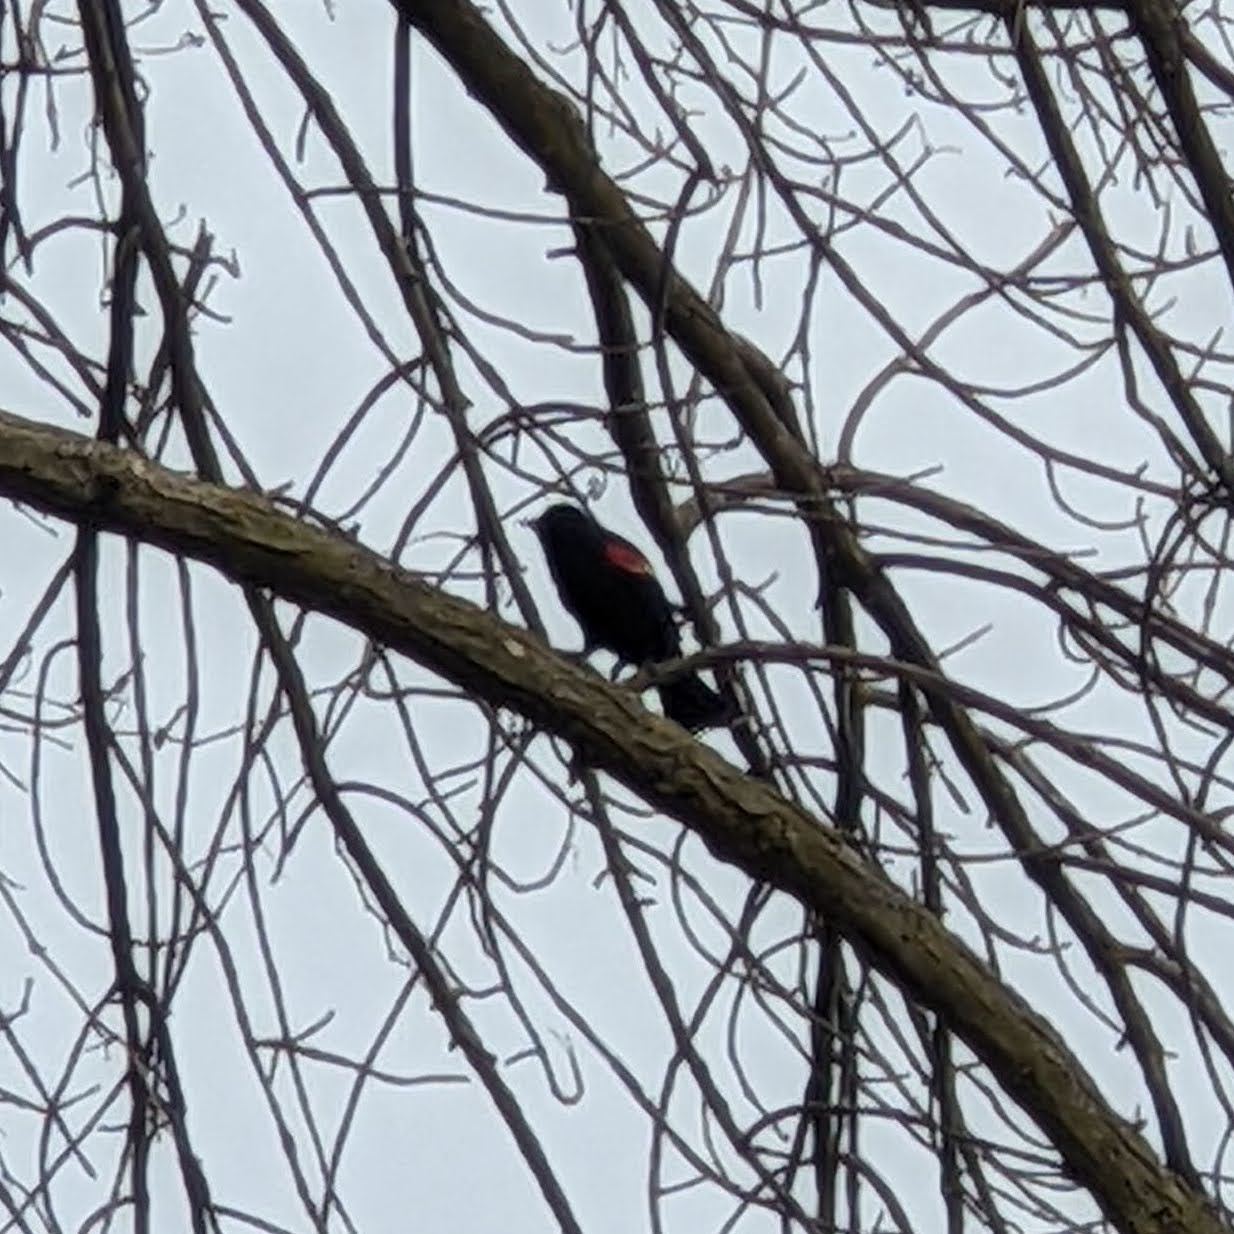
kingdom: Animalia
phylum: Chordata
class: Aves
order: Passeriformes
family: Icteridae
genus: Agelaius
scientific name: Agelaius phoeniceus
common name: Red-winged blackbird
